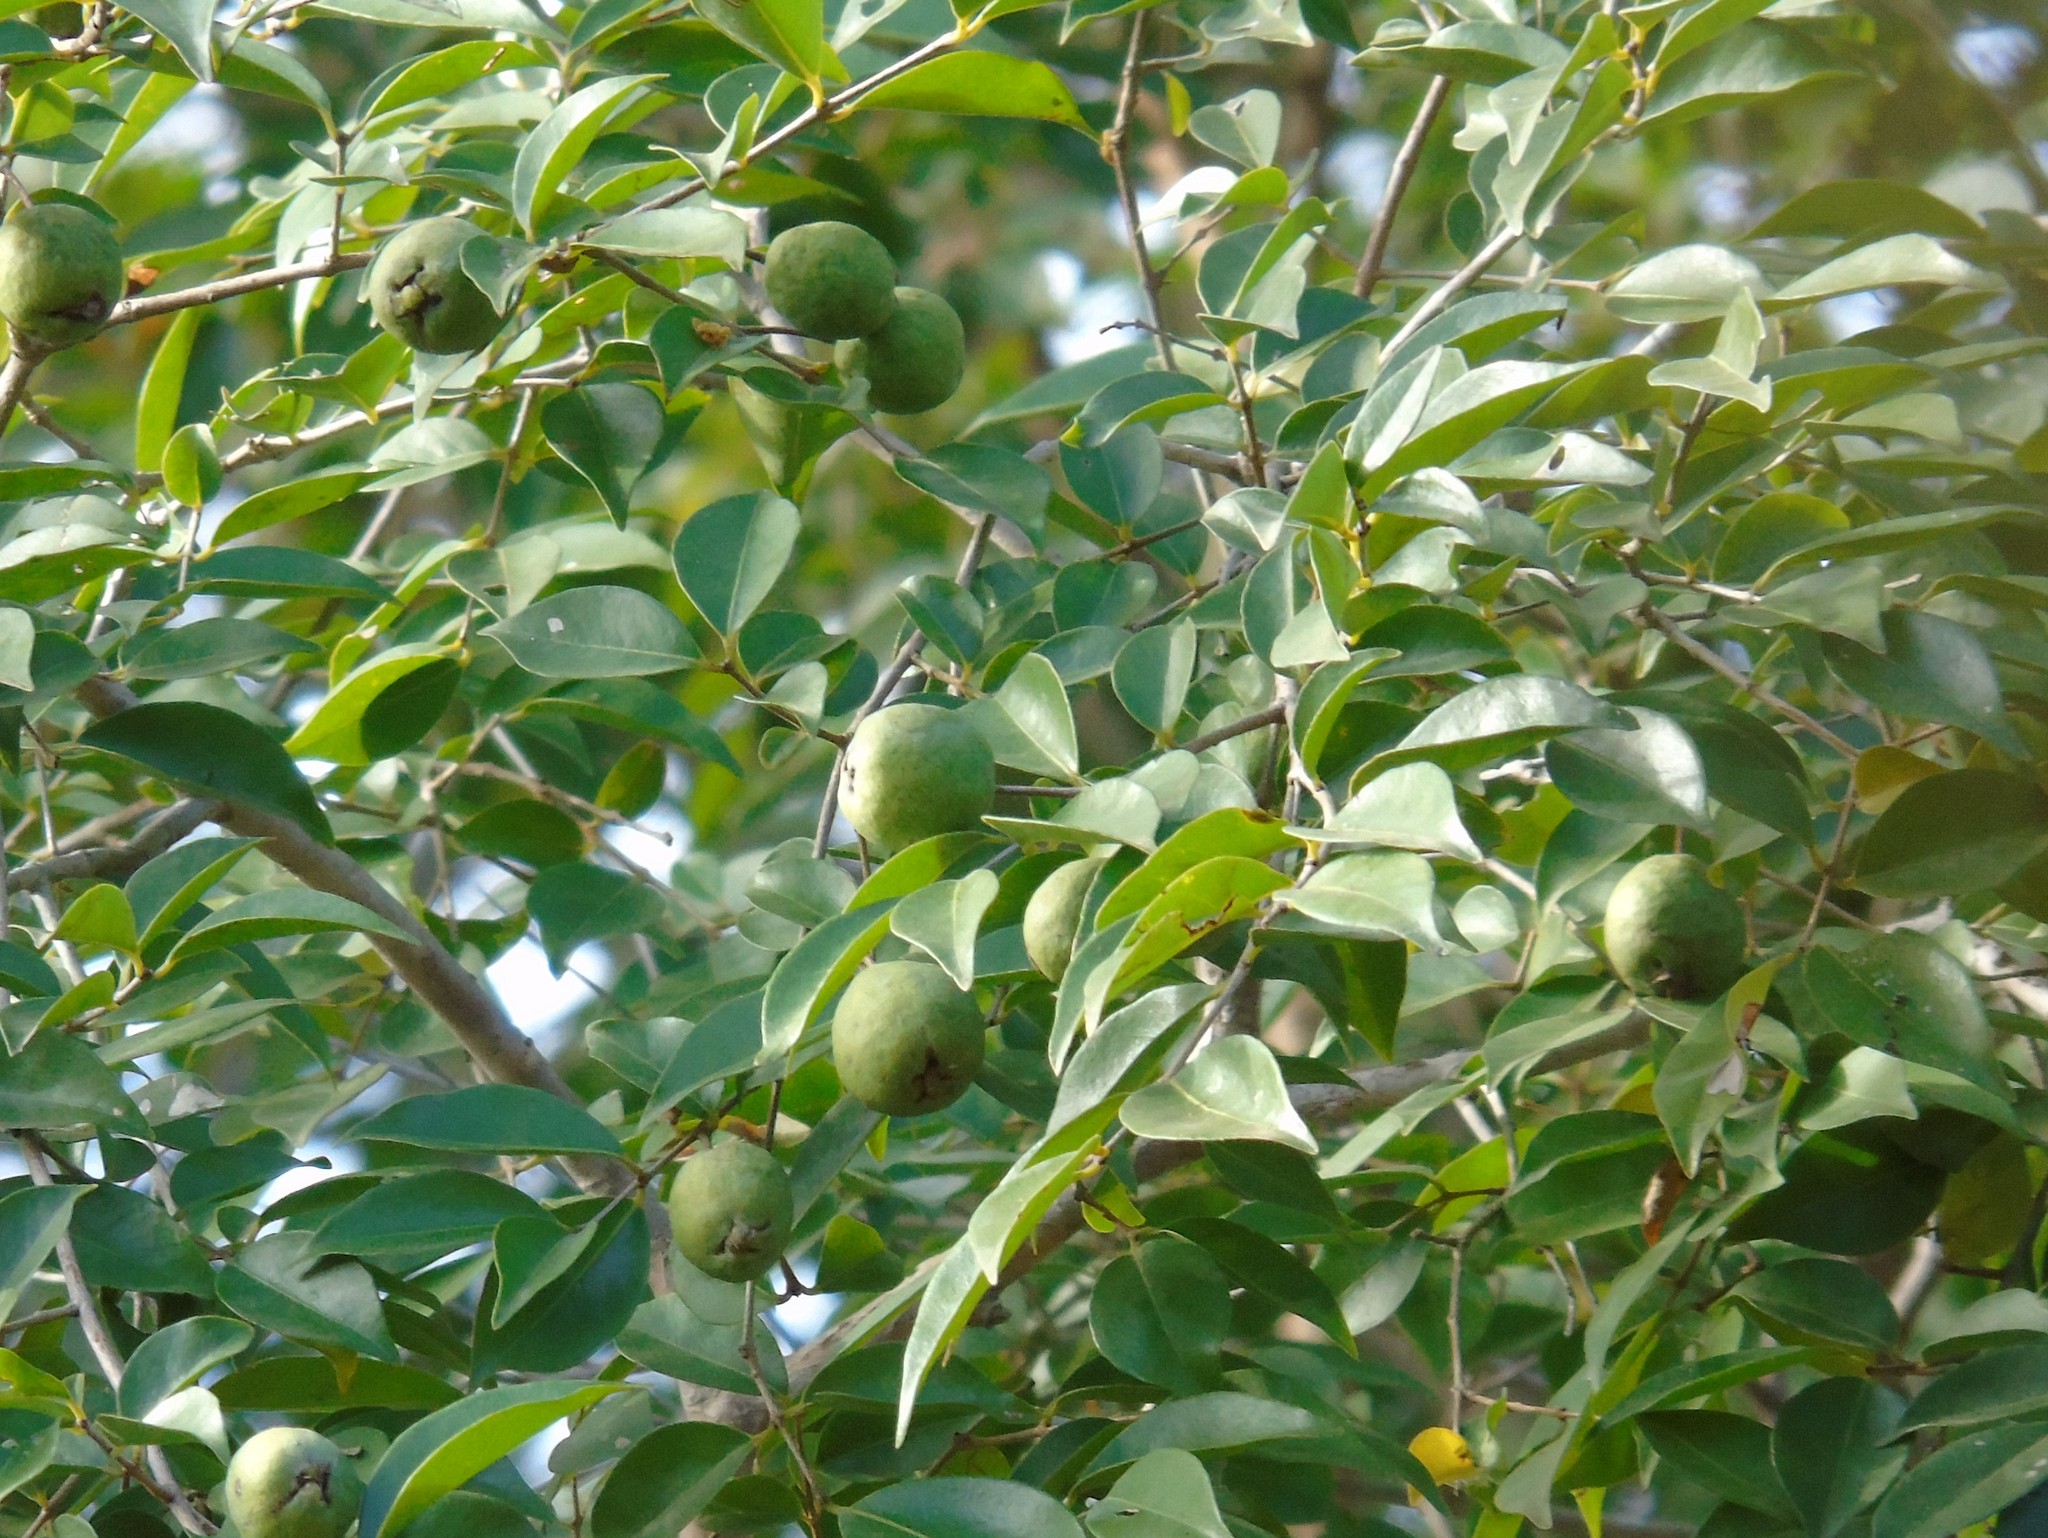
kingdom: Plantae
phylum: Tracheophyta
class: Magnoliopsida
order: Myrtales
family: Myrtaceae
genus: Psidium
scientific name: Psidium sartorianum
